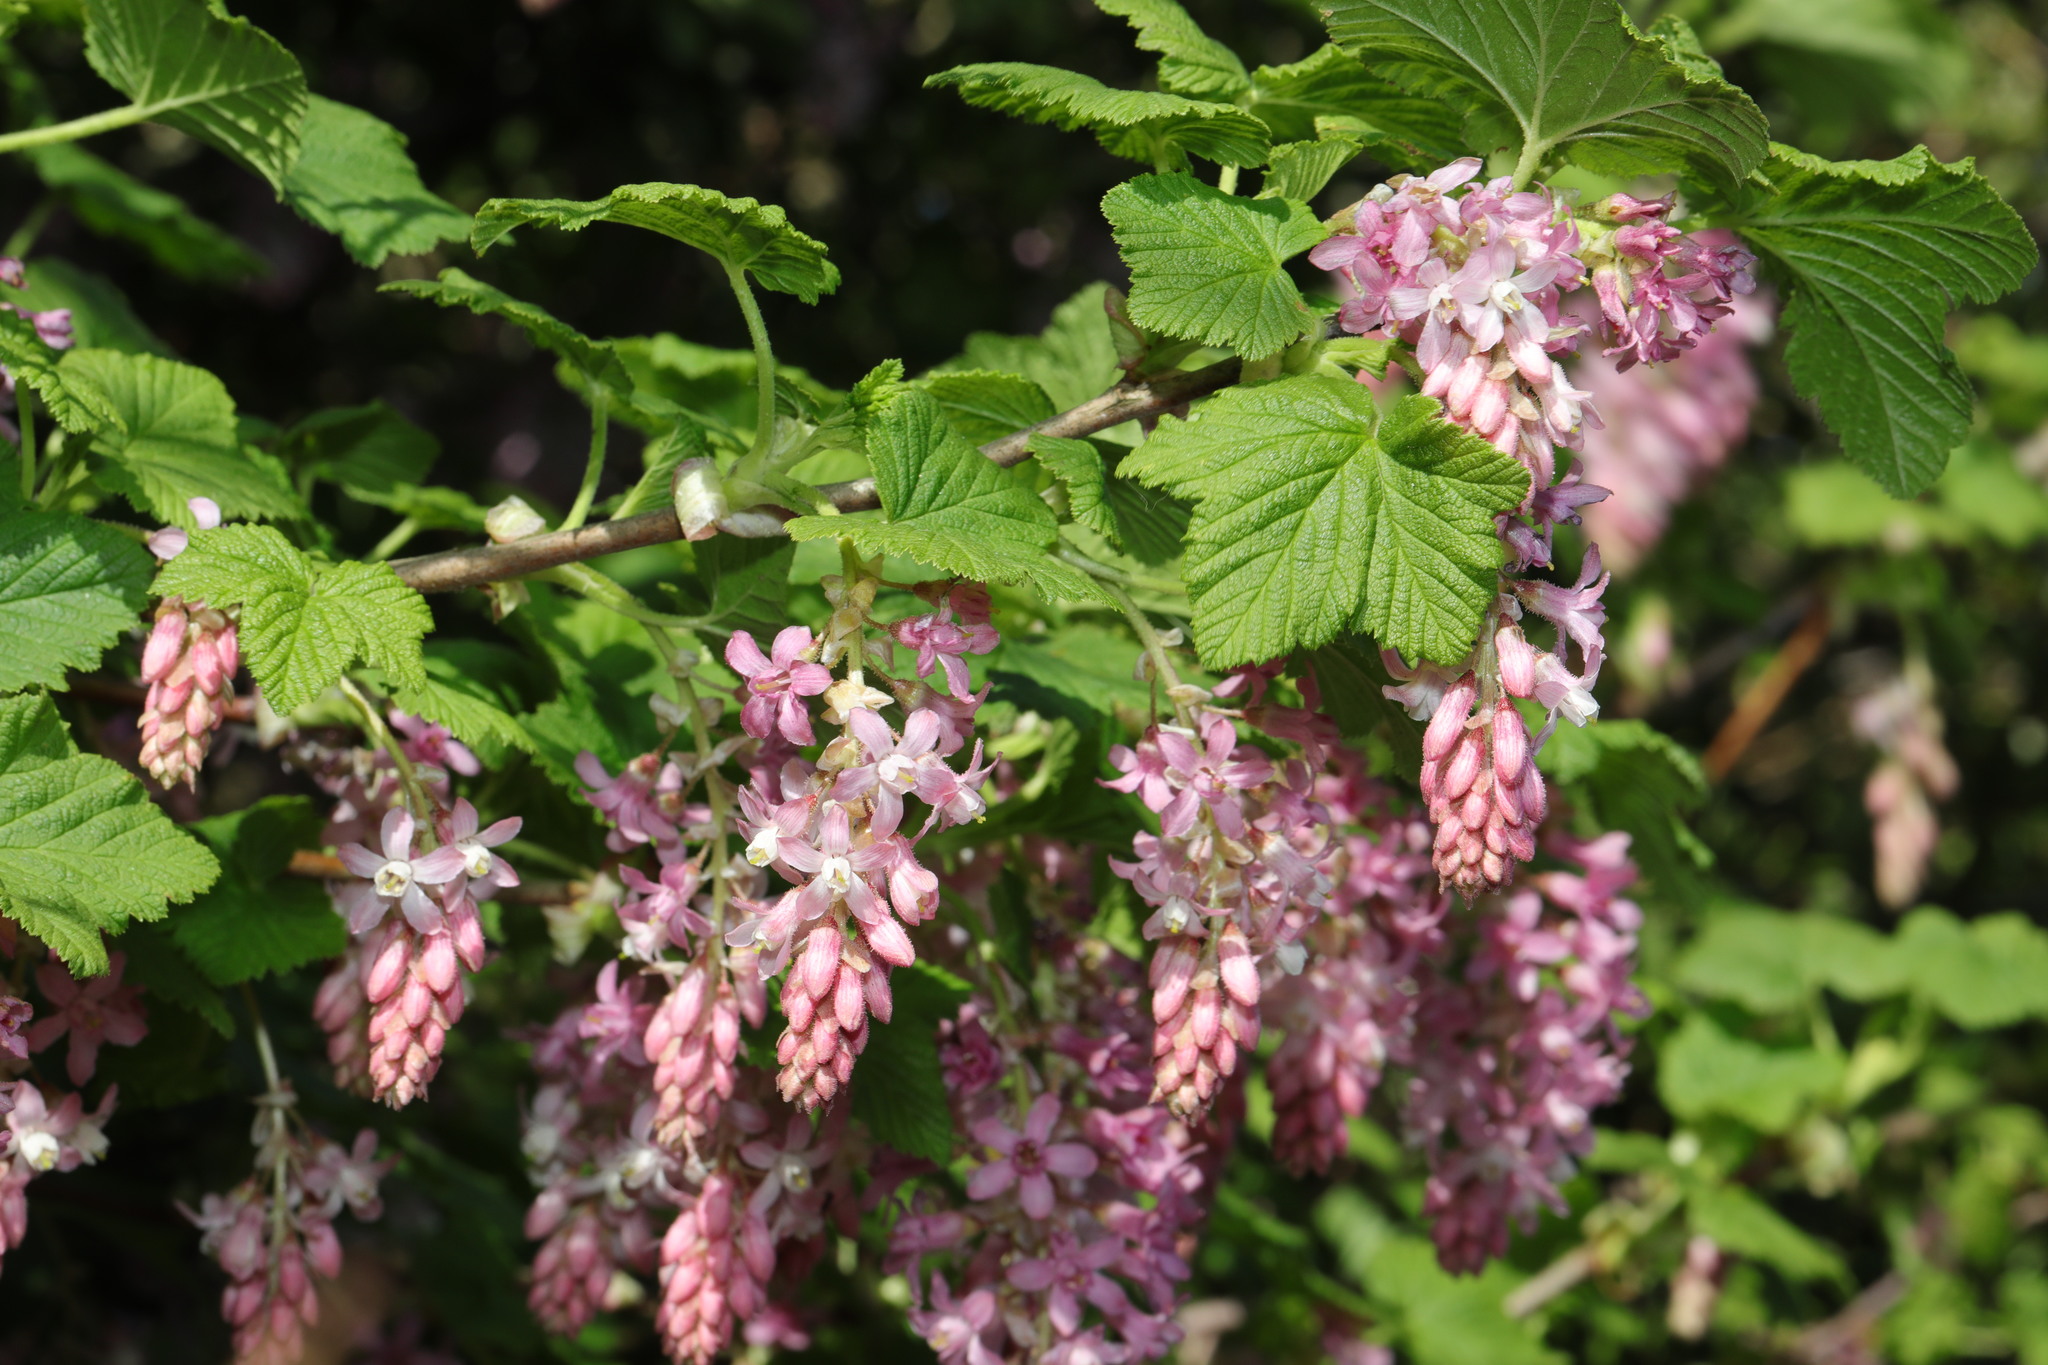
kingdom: Plantae
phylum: Tracheophyta
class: Magnoliopsida
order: Saxifragales
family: Grossulariaceae
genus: Ribes
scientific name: Ribes sanguineum
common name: Flowering currant
